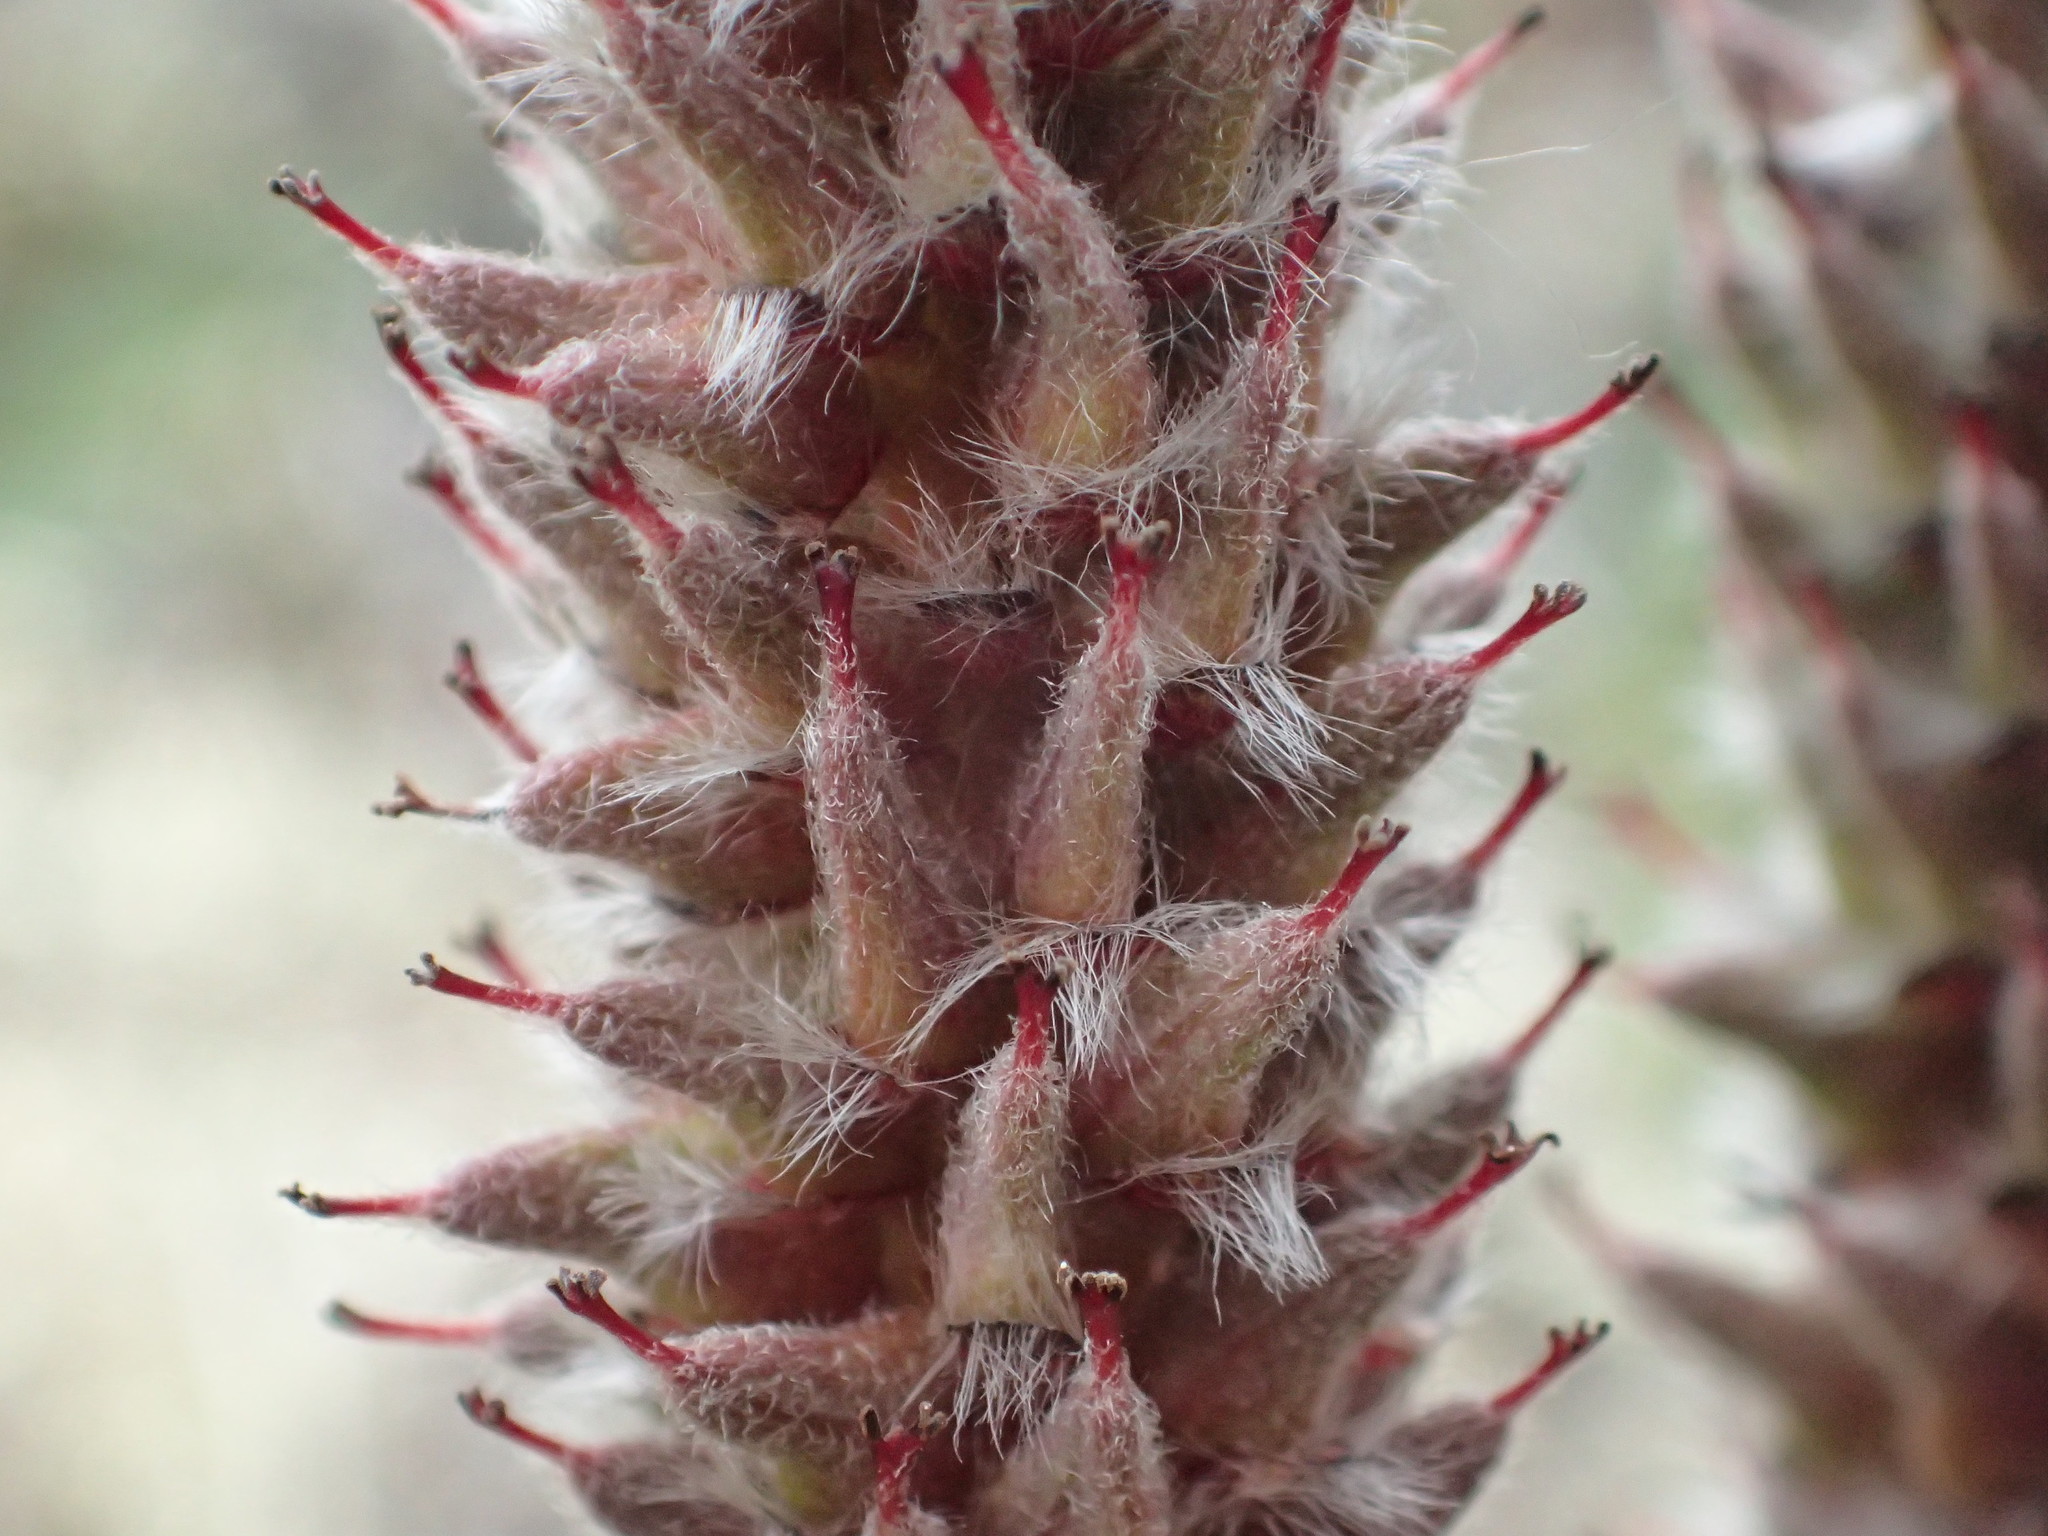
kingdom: Plantae
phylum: Tracheophyta
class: Magnoliopsida
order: Malpighiales
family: Salicaceae
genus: Salix
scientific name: Salix arctica
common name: Arctic willow
